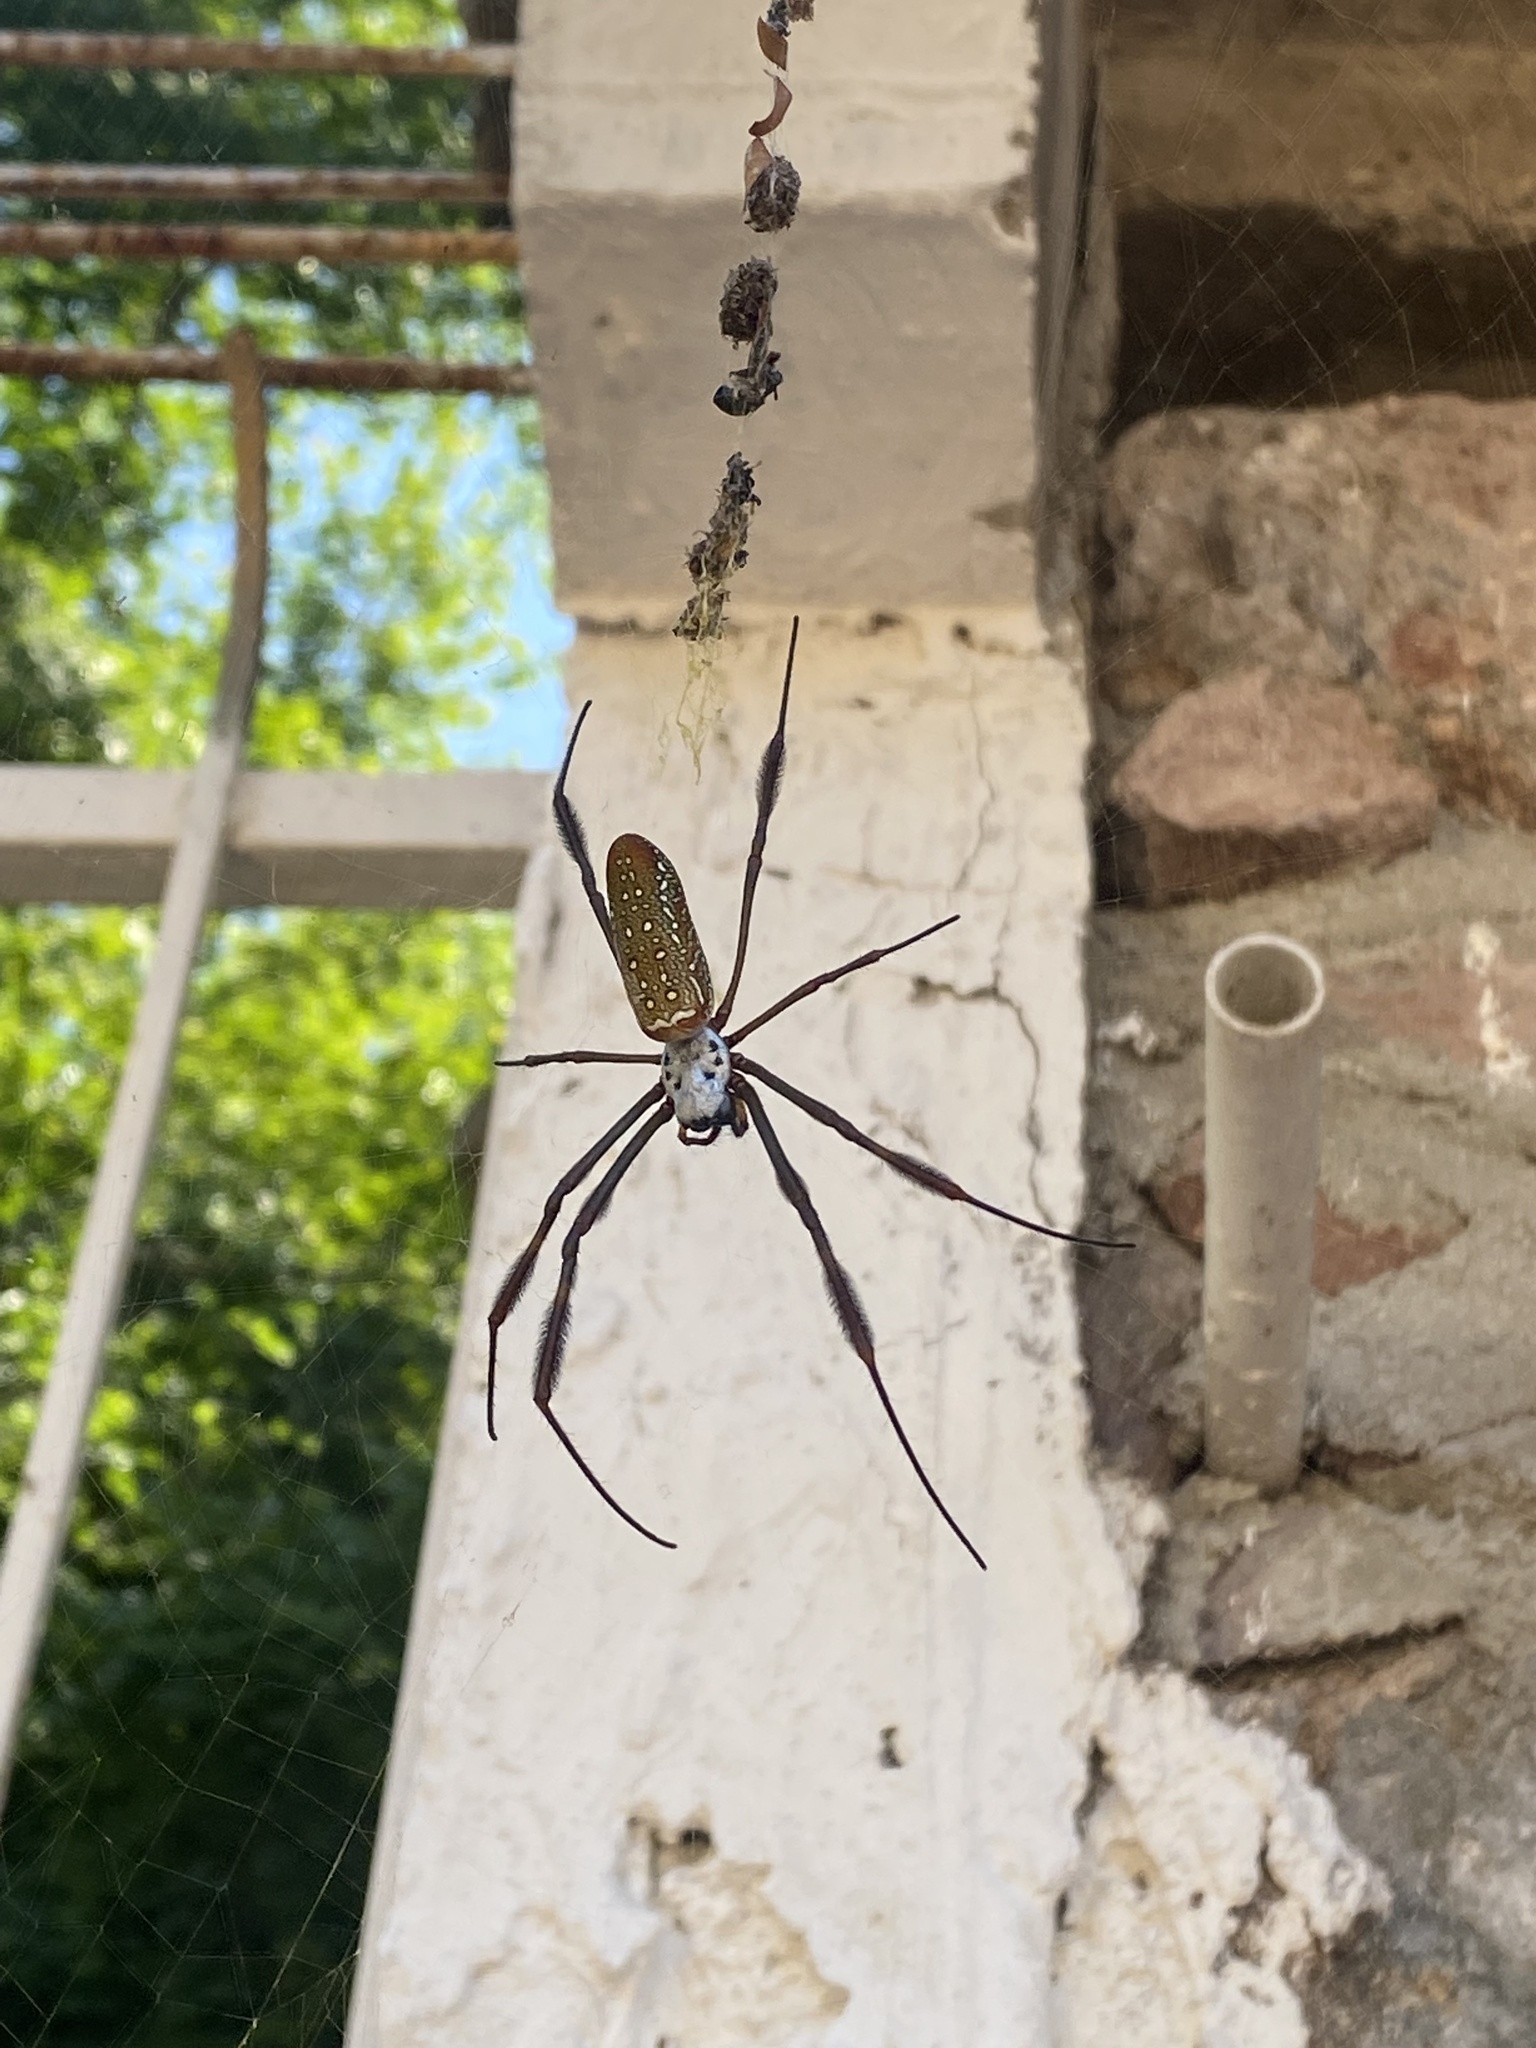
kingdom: Animalia
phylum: Arthropoda
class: Arachnida
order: Araneae
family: Araneidae
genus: Trichonephila
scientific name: Trichonephila clavipes
